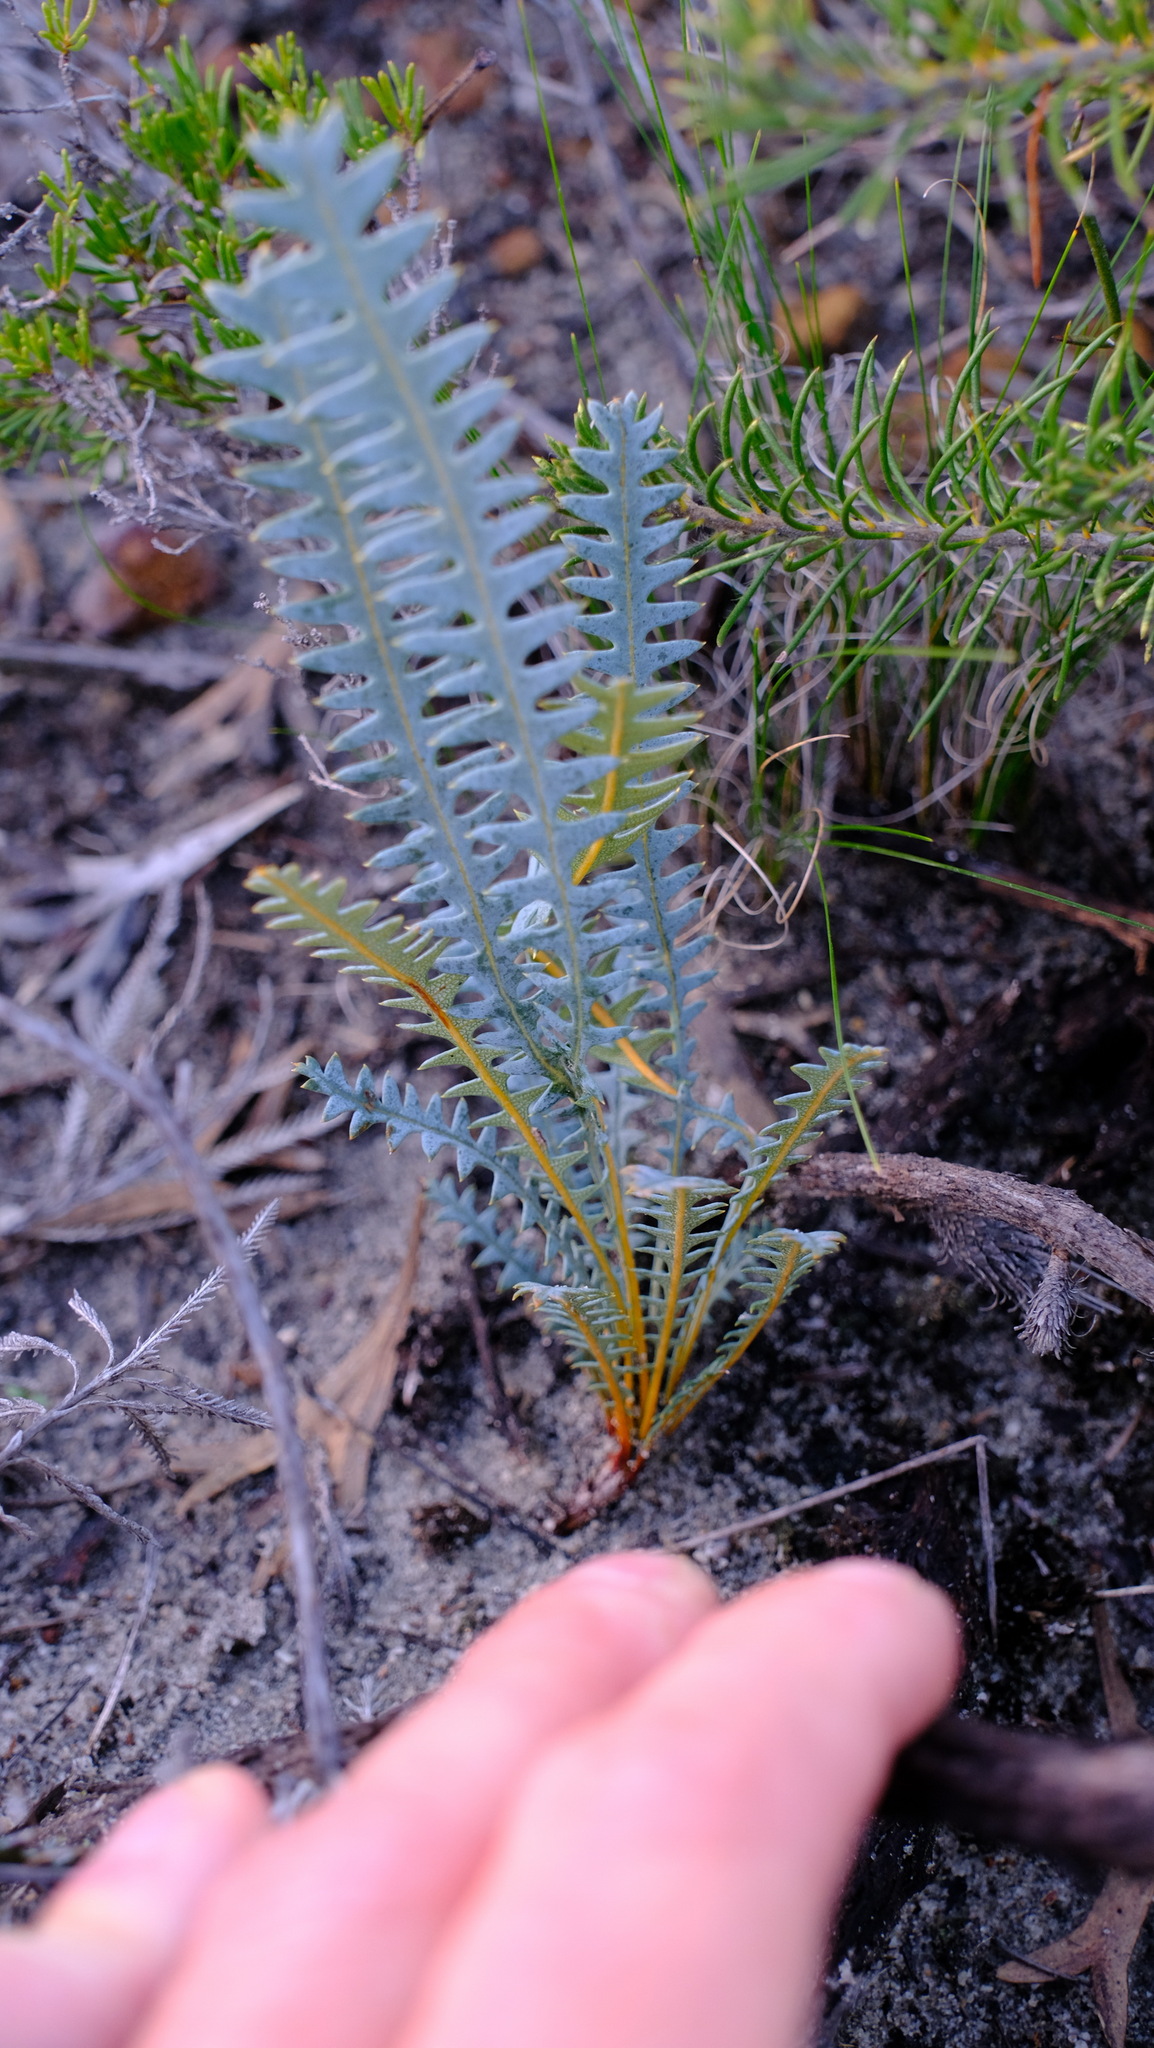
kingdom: Plantae
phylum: Tracheophyta
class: Magnoliopsida
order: Proteales
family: Proteaceae
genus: Banksia
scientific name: Banksia pteridifolia
